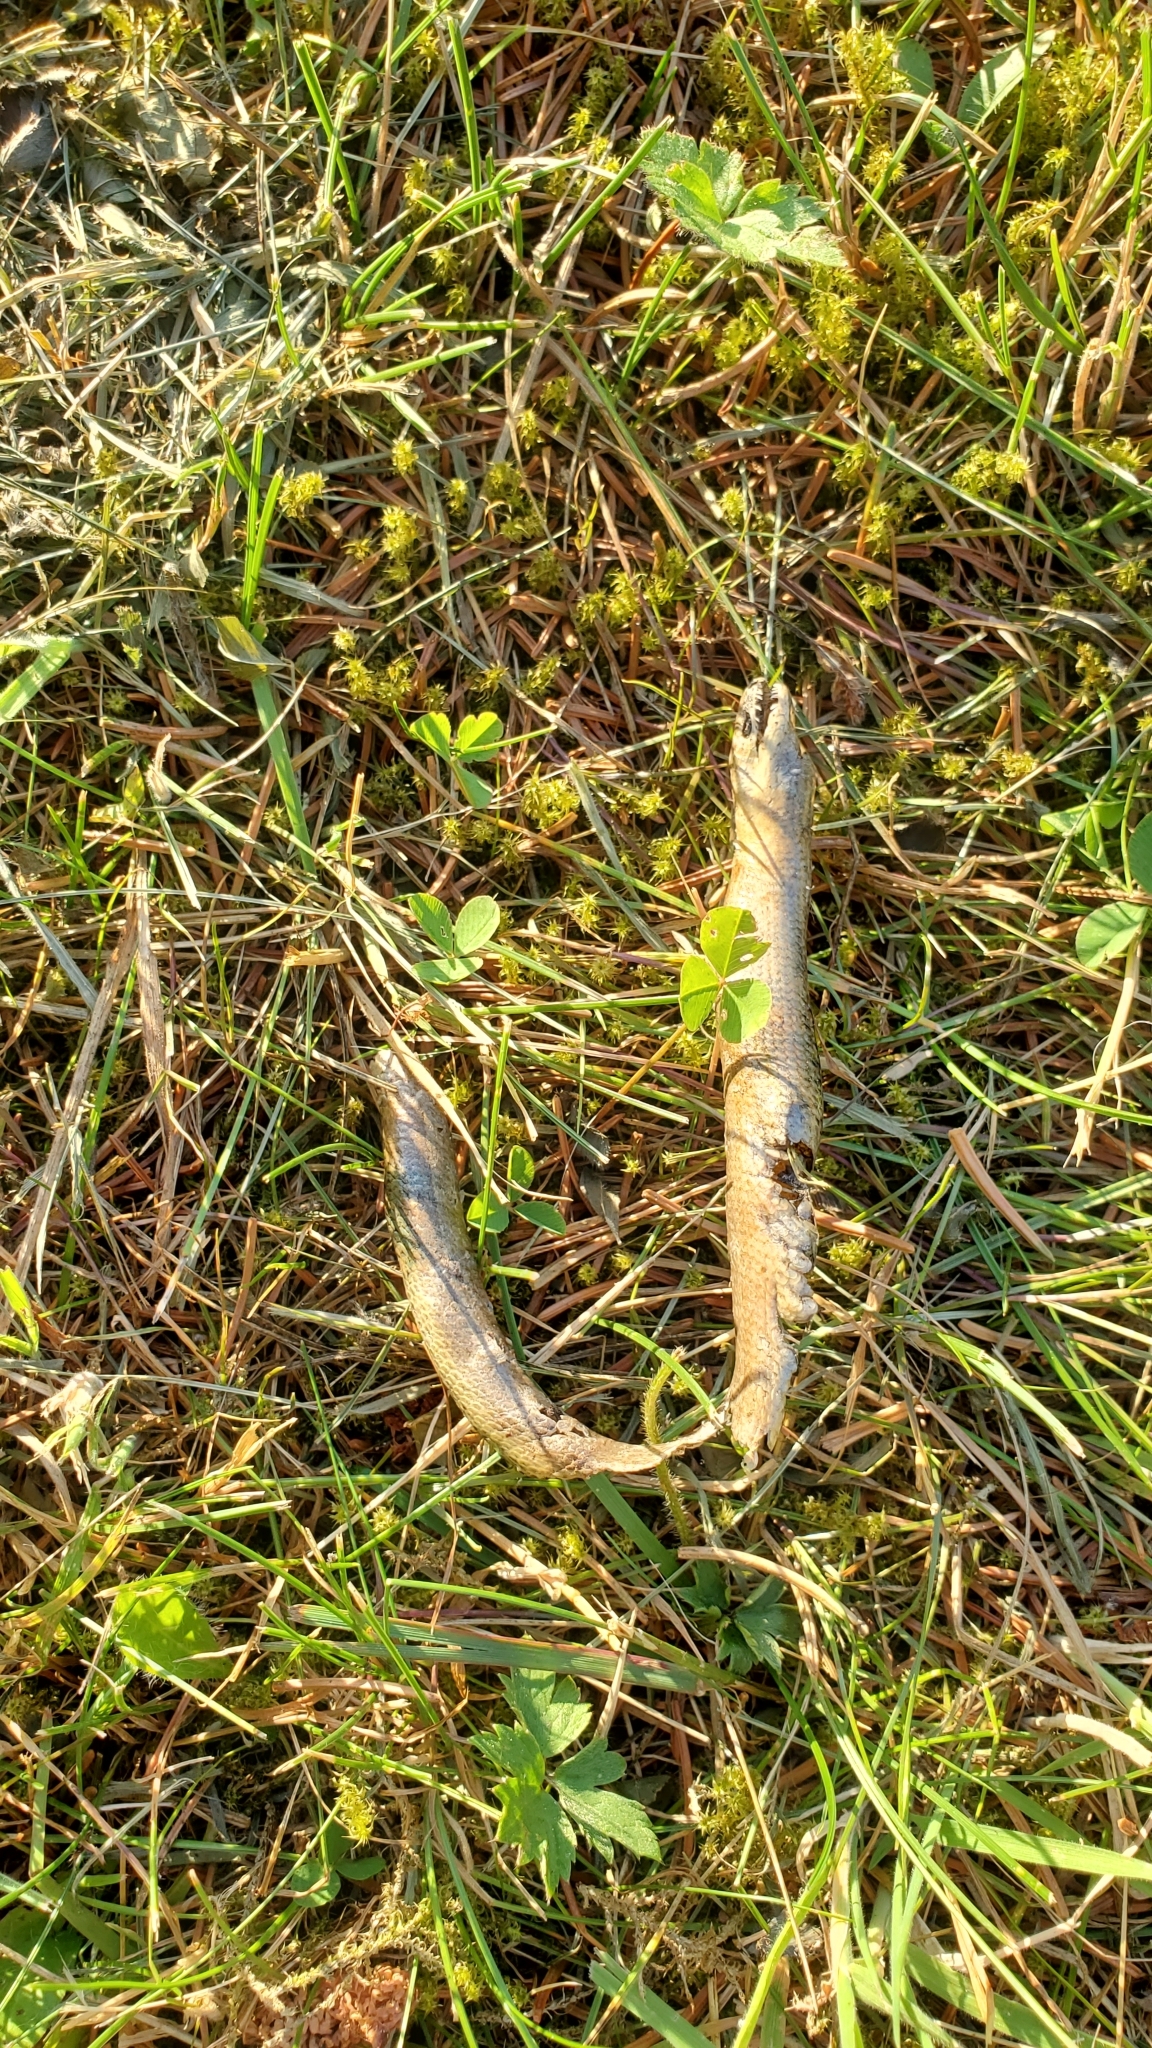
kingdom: Animalia
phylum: Chordata
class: Squamata
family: Anguidae
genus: Anguis
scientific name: Anguis fragilis
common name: Slow worm
